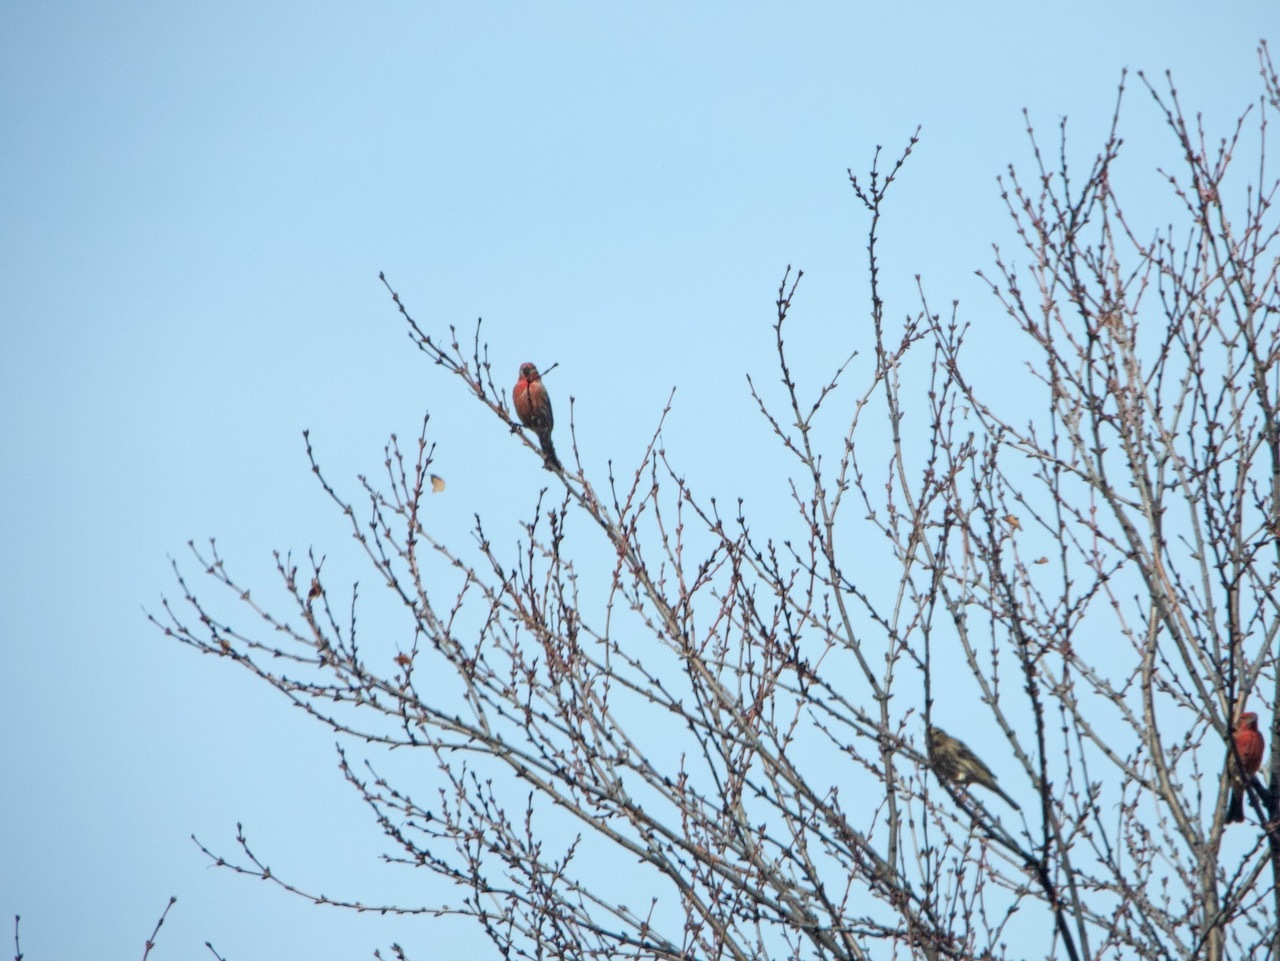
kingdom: Animalia
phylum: Chordata
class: Aves
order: Passeriformes
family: Fringillidae
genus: Haemorhous
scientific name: Haemorhous mexicanus
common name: House finch
